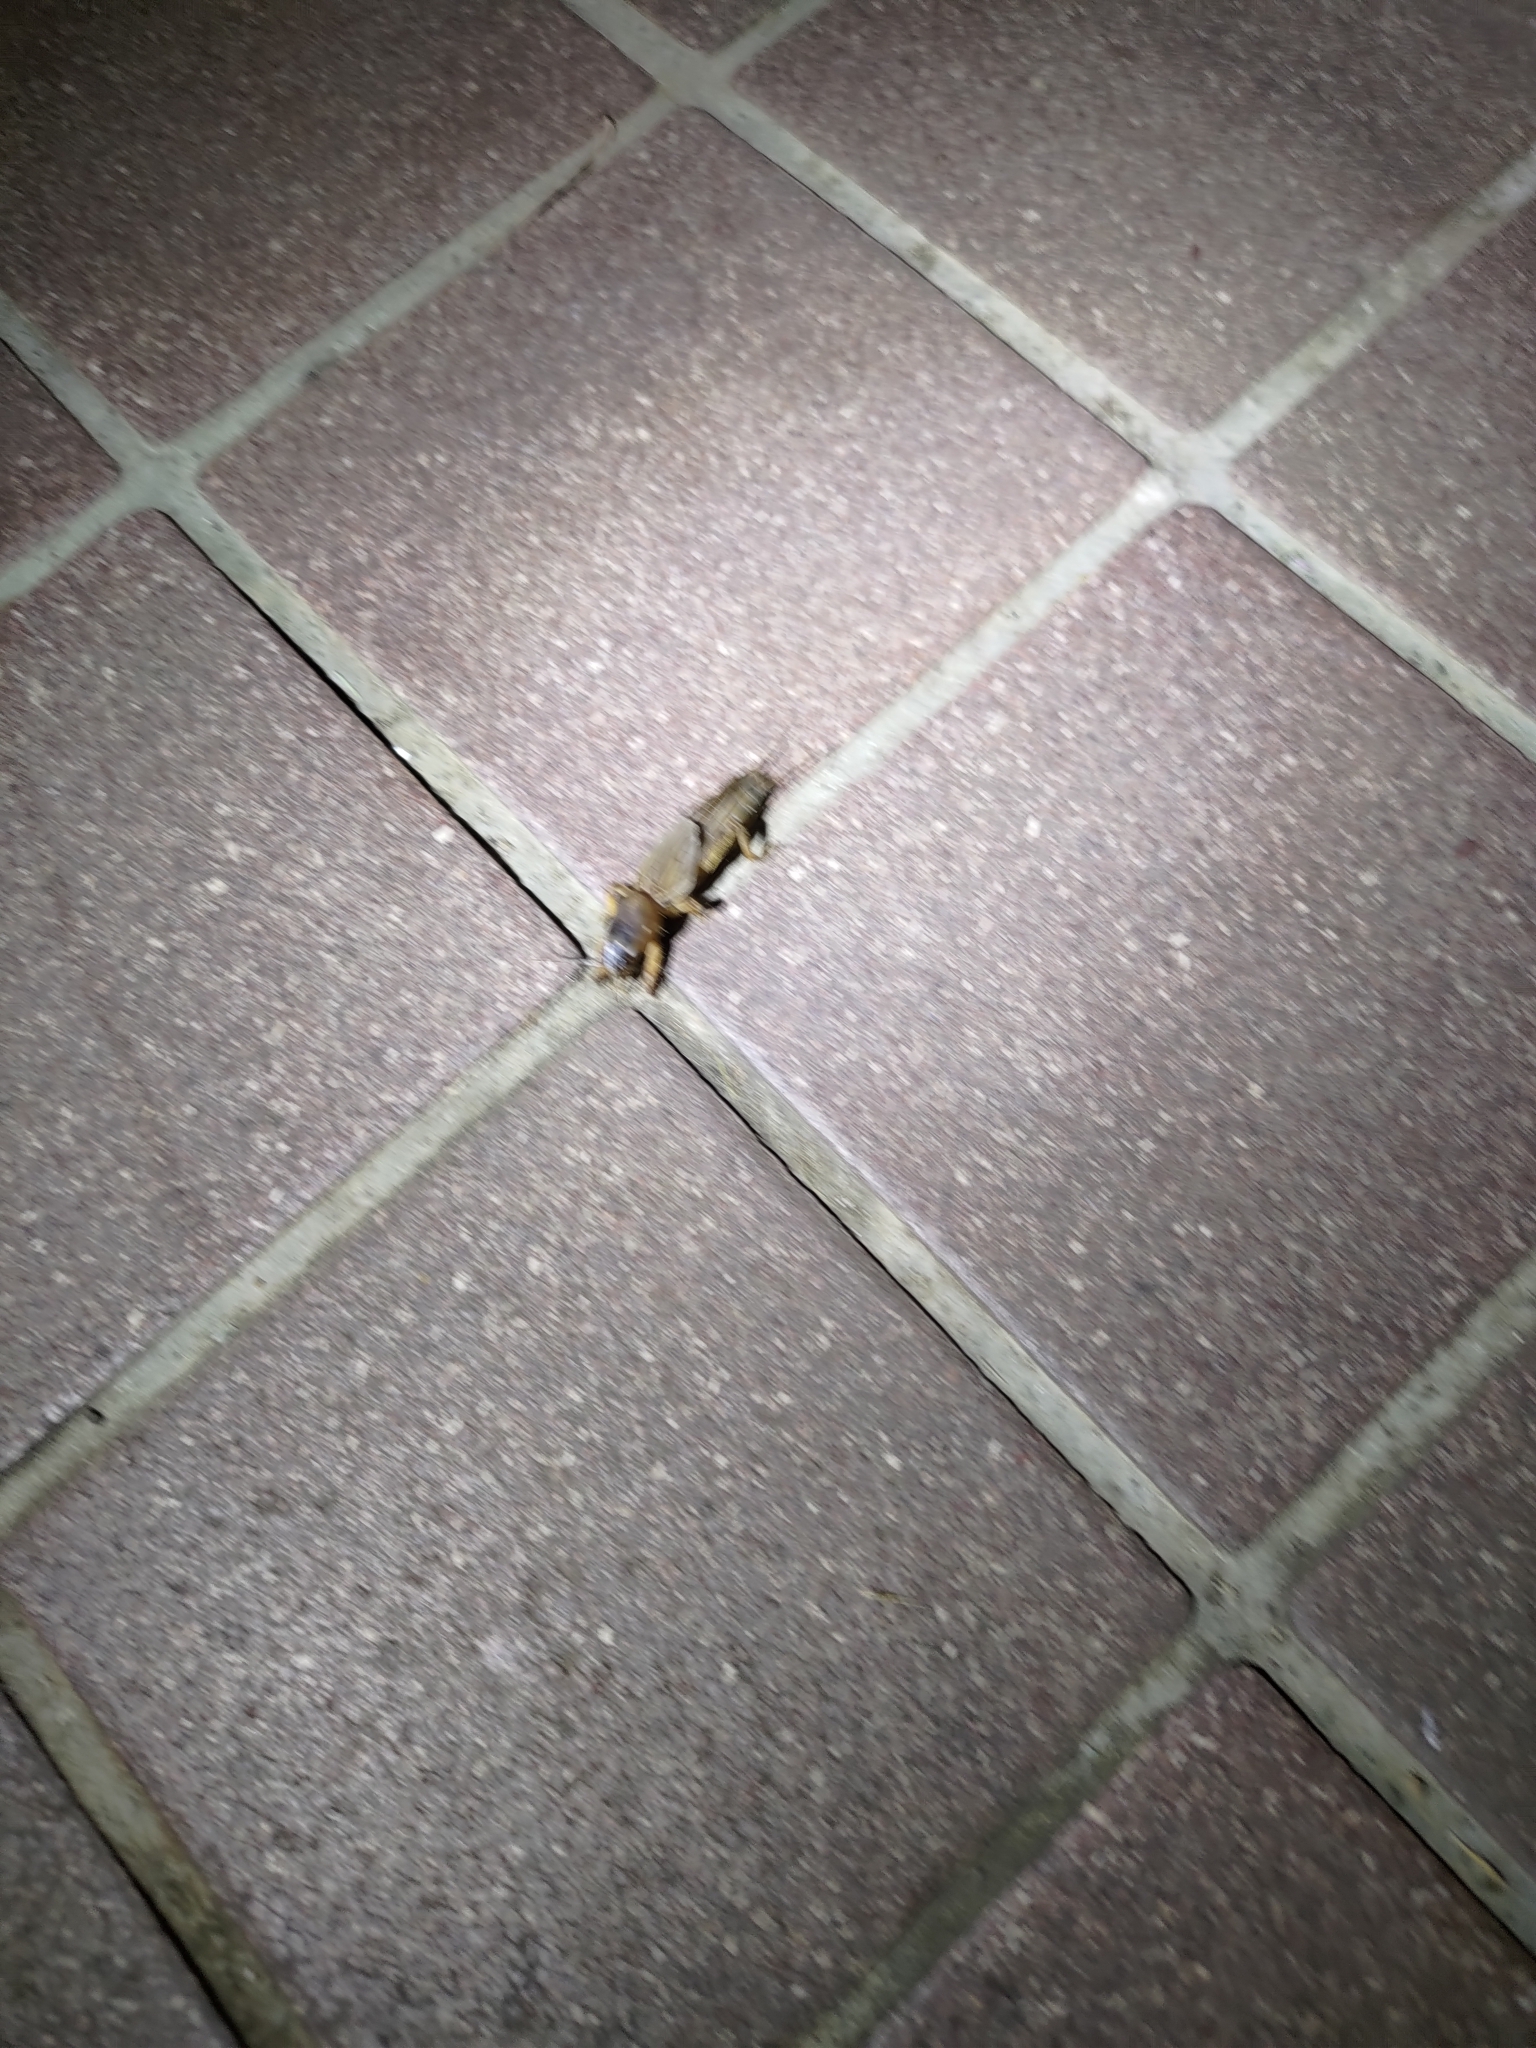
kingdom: Animalia
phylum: Arthropoda
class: Insecta
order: Orthoptera
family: Gryllotalpidae
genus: Gryllotalpa
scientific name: Gryllotalpa orientalis
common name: Grasshopper
